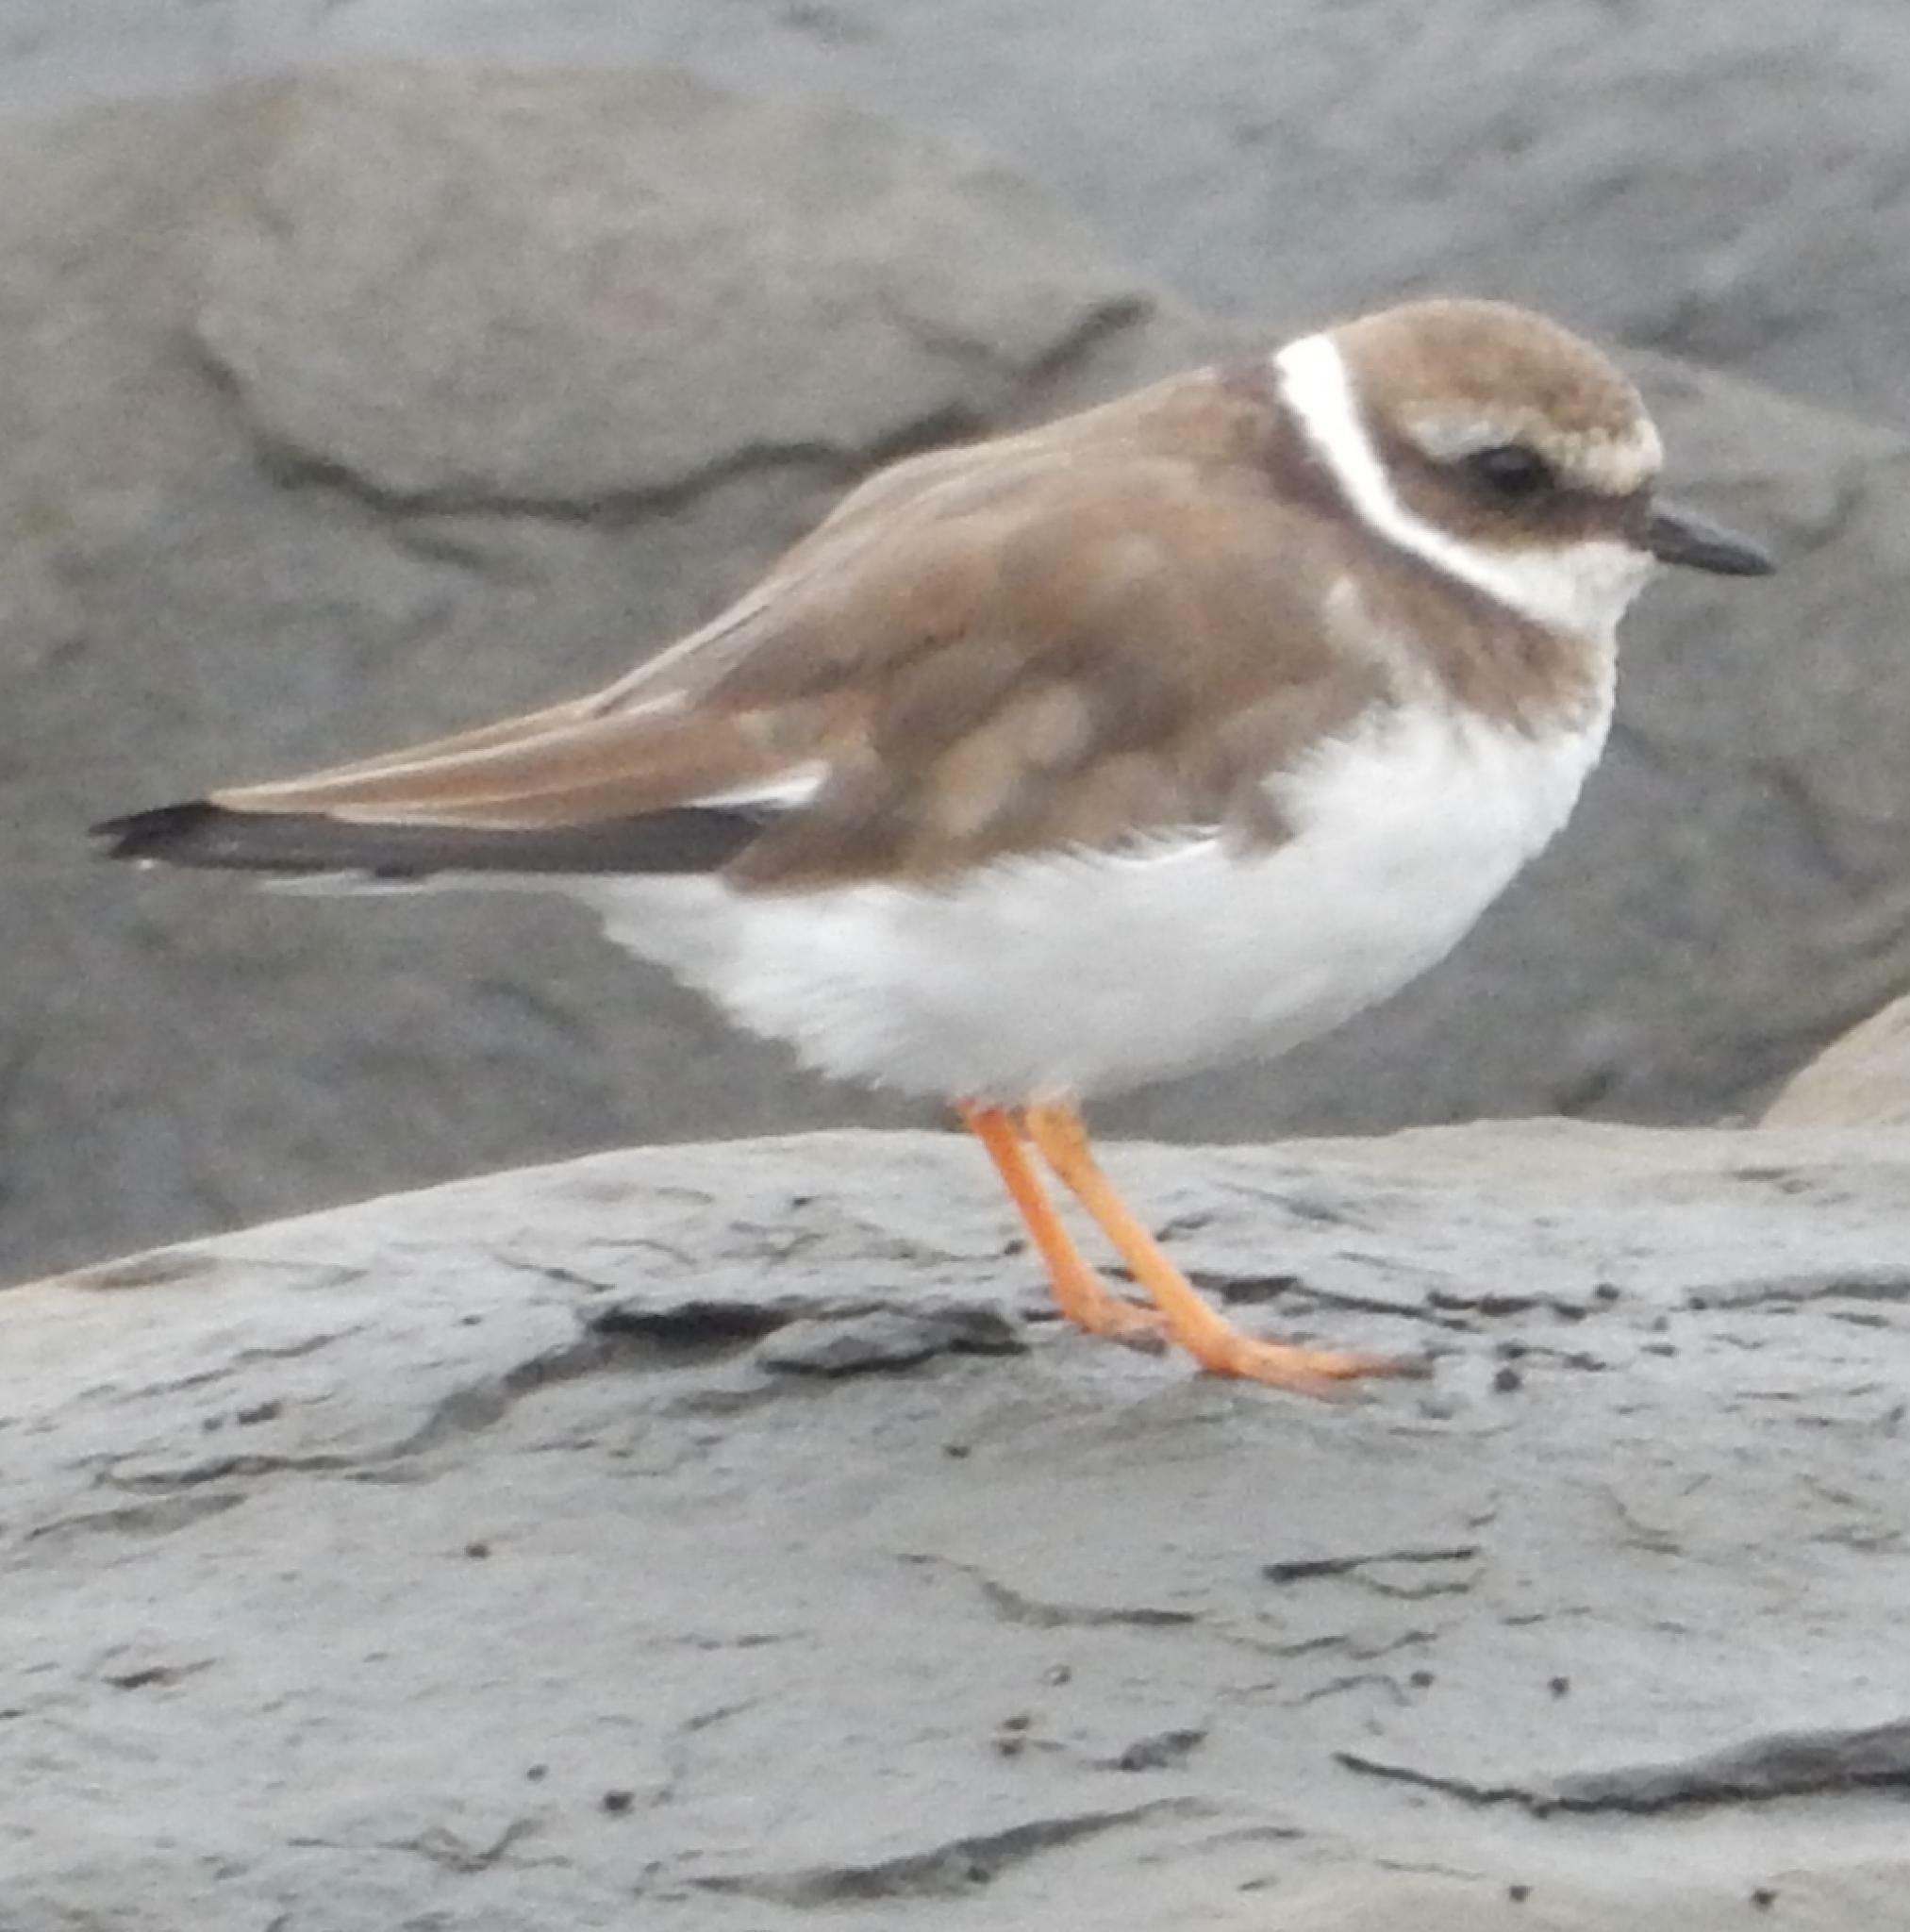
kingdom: Animalia
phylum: Chordata
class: Aves
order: Charadriiformes
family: Charadriidae
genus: Charadrius
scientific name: Charadrius hiaticula
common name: Common ringed plover
